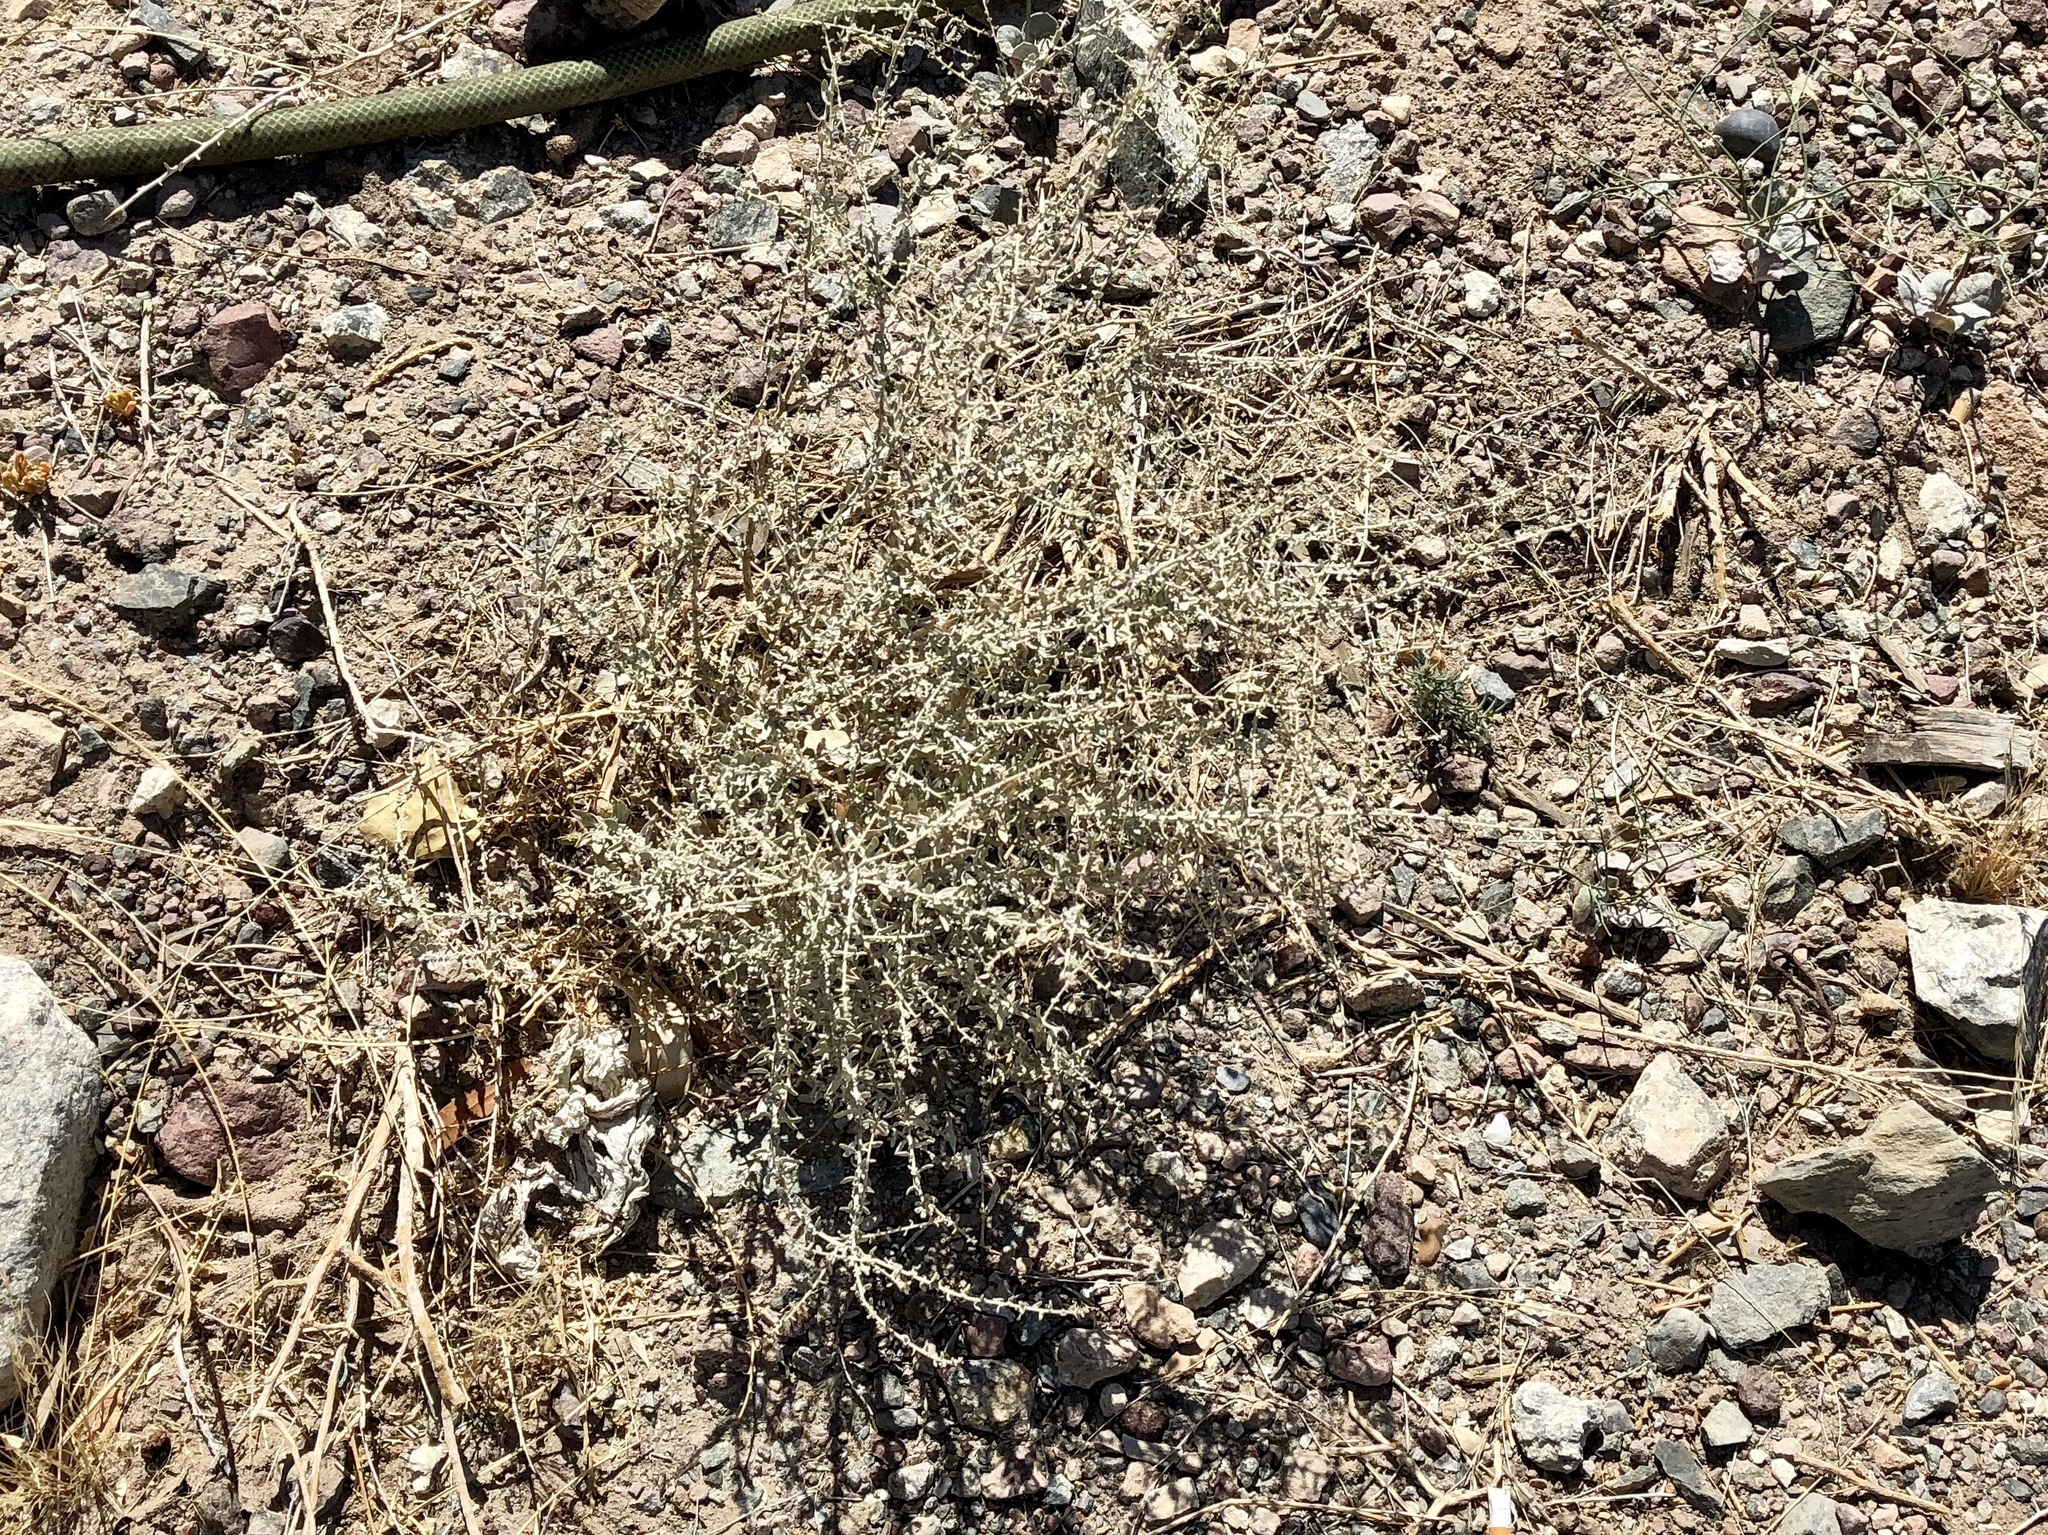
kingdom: Plantae
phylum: Tracheophyta
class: Magnoliopsida
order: Caryophyllales
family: Amaranthaceae
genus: Atriplex
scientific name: Atriplex polycarpa
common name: Desert saltbush
